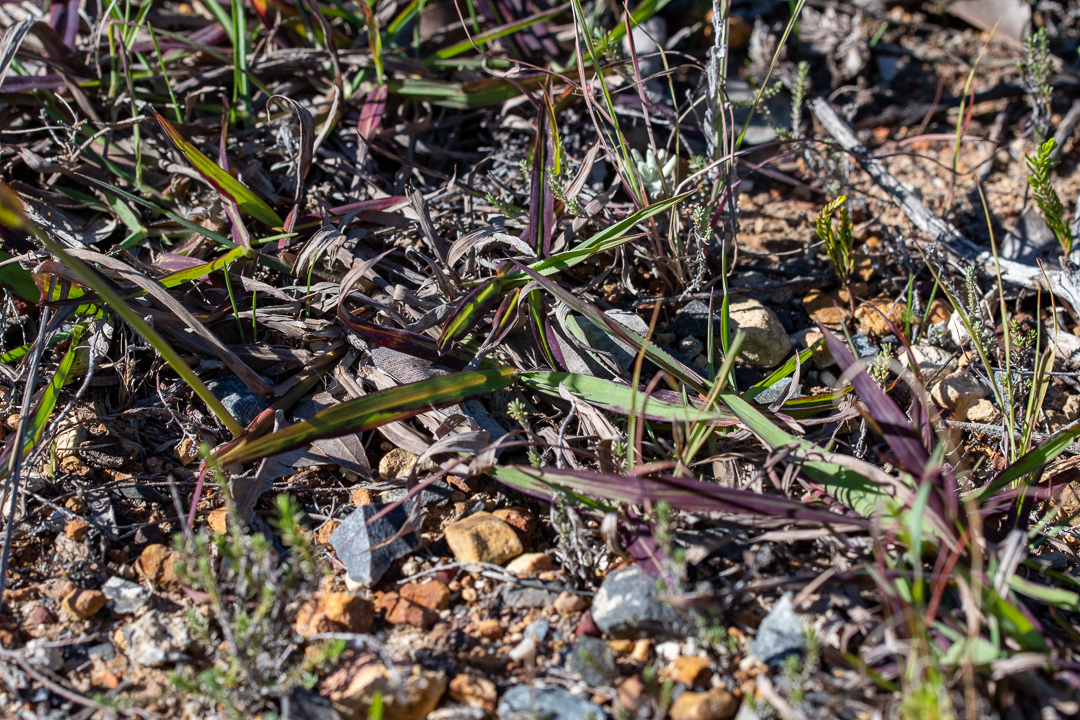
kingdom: Plantae
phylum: Tracheophyta
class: Liliopsida
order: Poales
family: Poaceae
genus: Paspalum
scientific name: Paspalum dilatatum
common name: Dallisgrass
